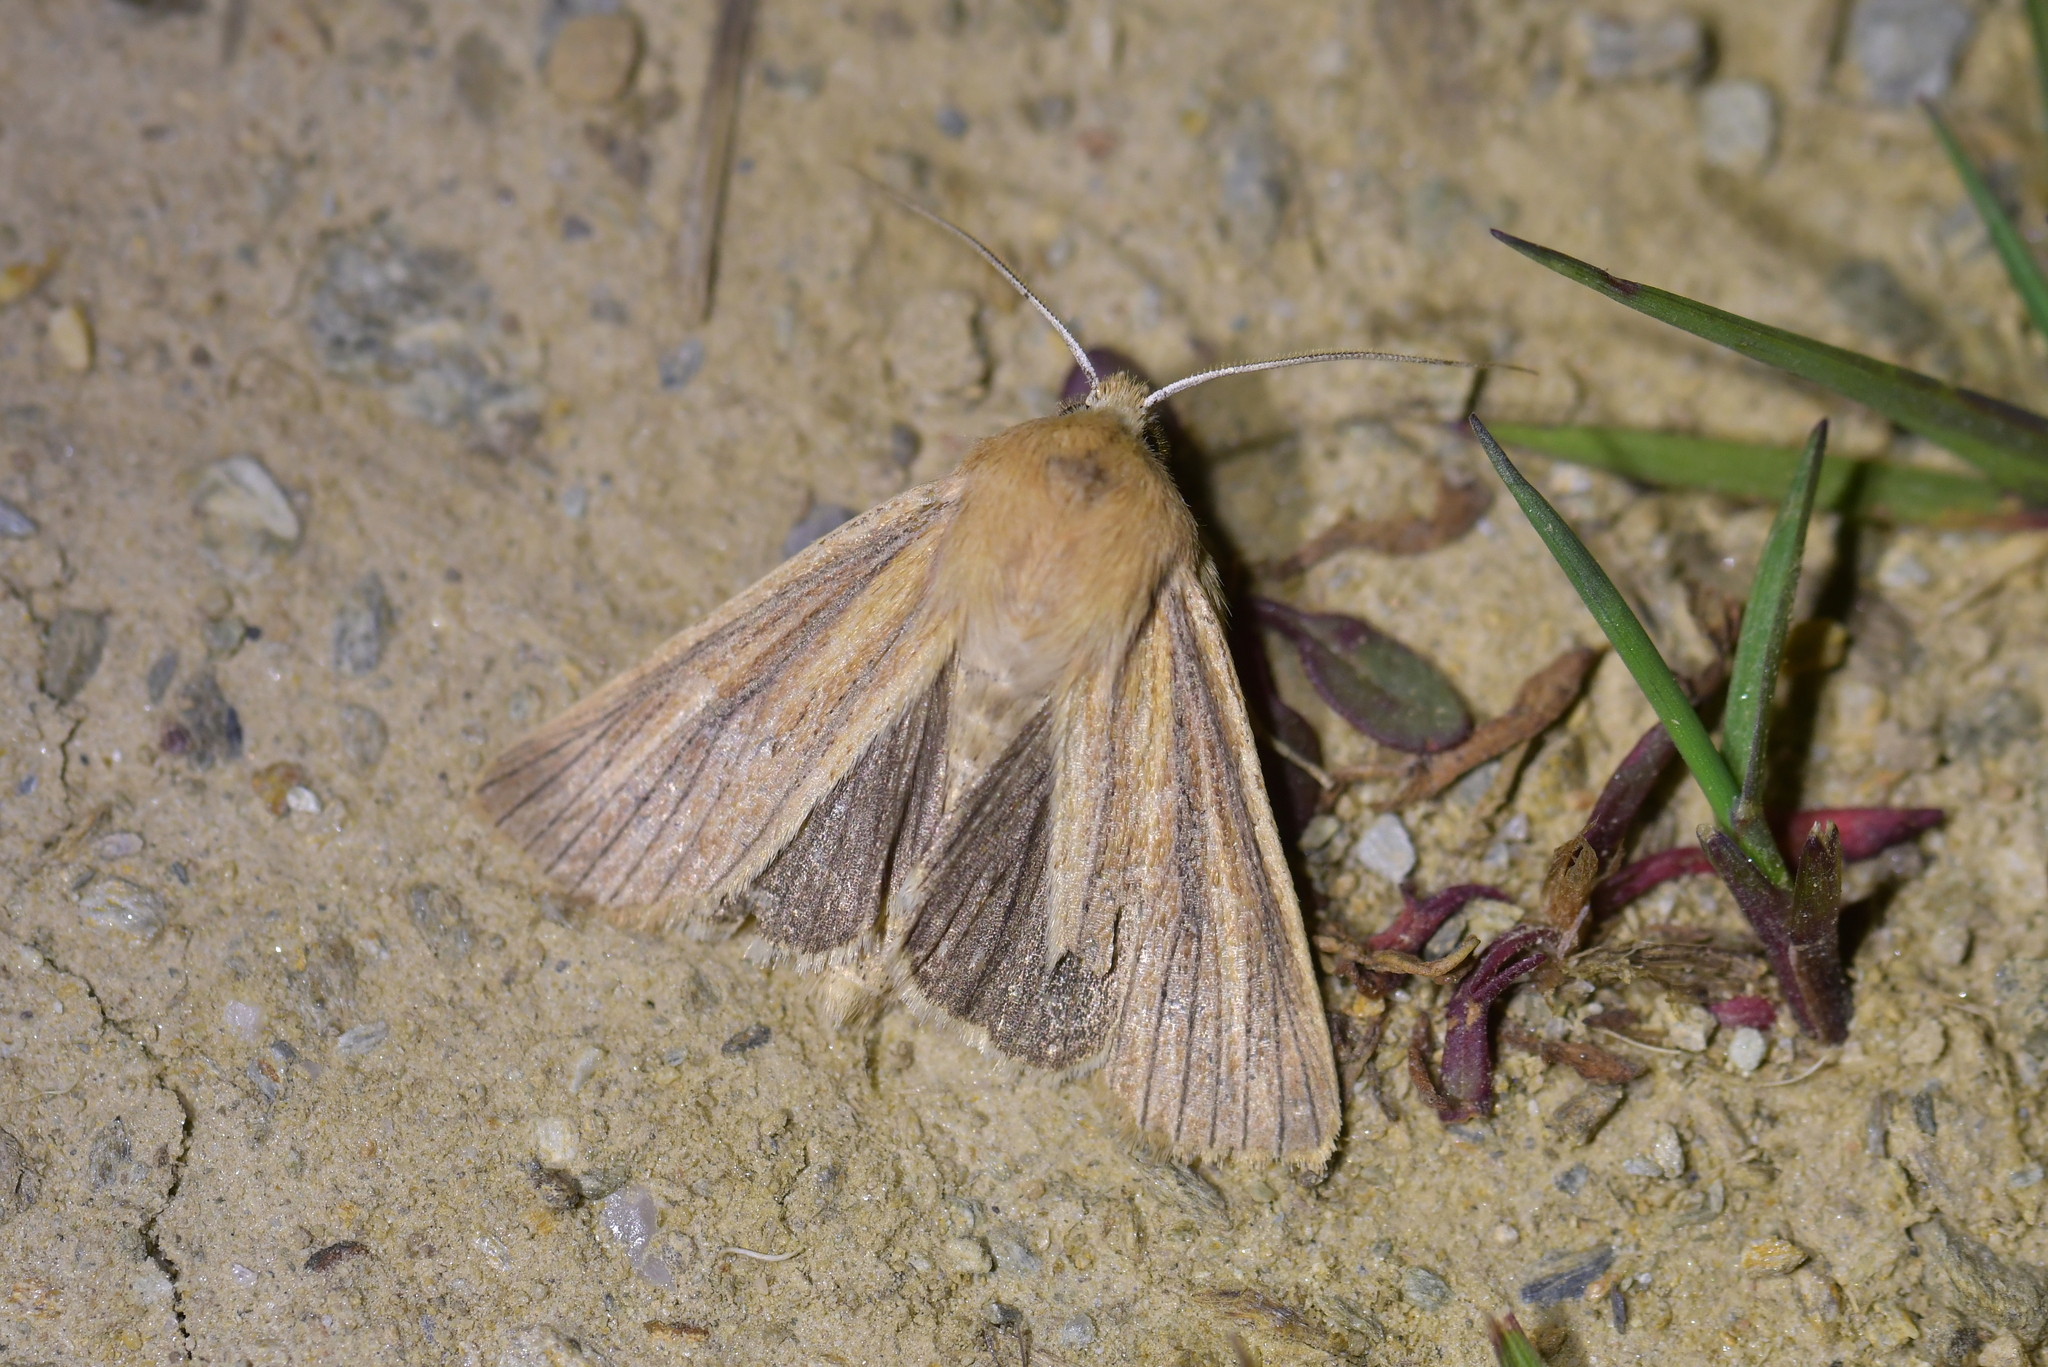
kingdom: Animalia
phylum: Arthropoda
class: Insecta
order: Lepidoptera
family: Noctuidae
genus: Ichneutica
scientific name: Ichneutica arotis
